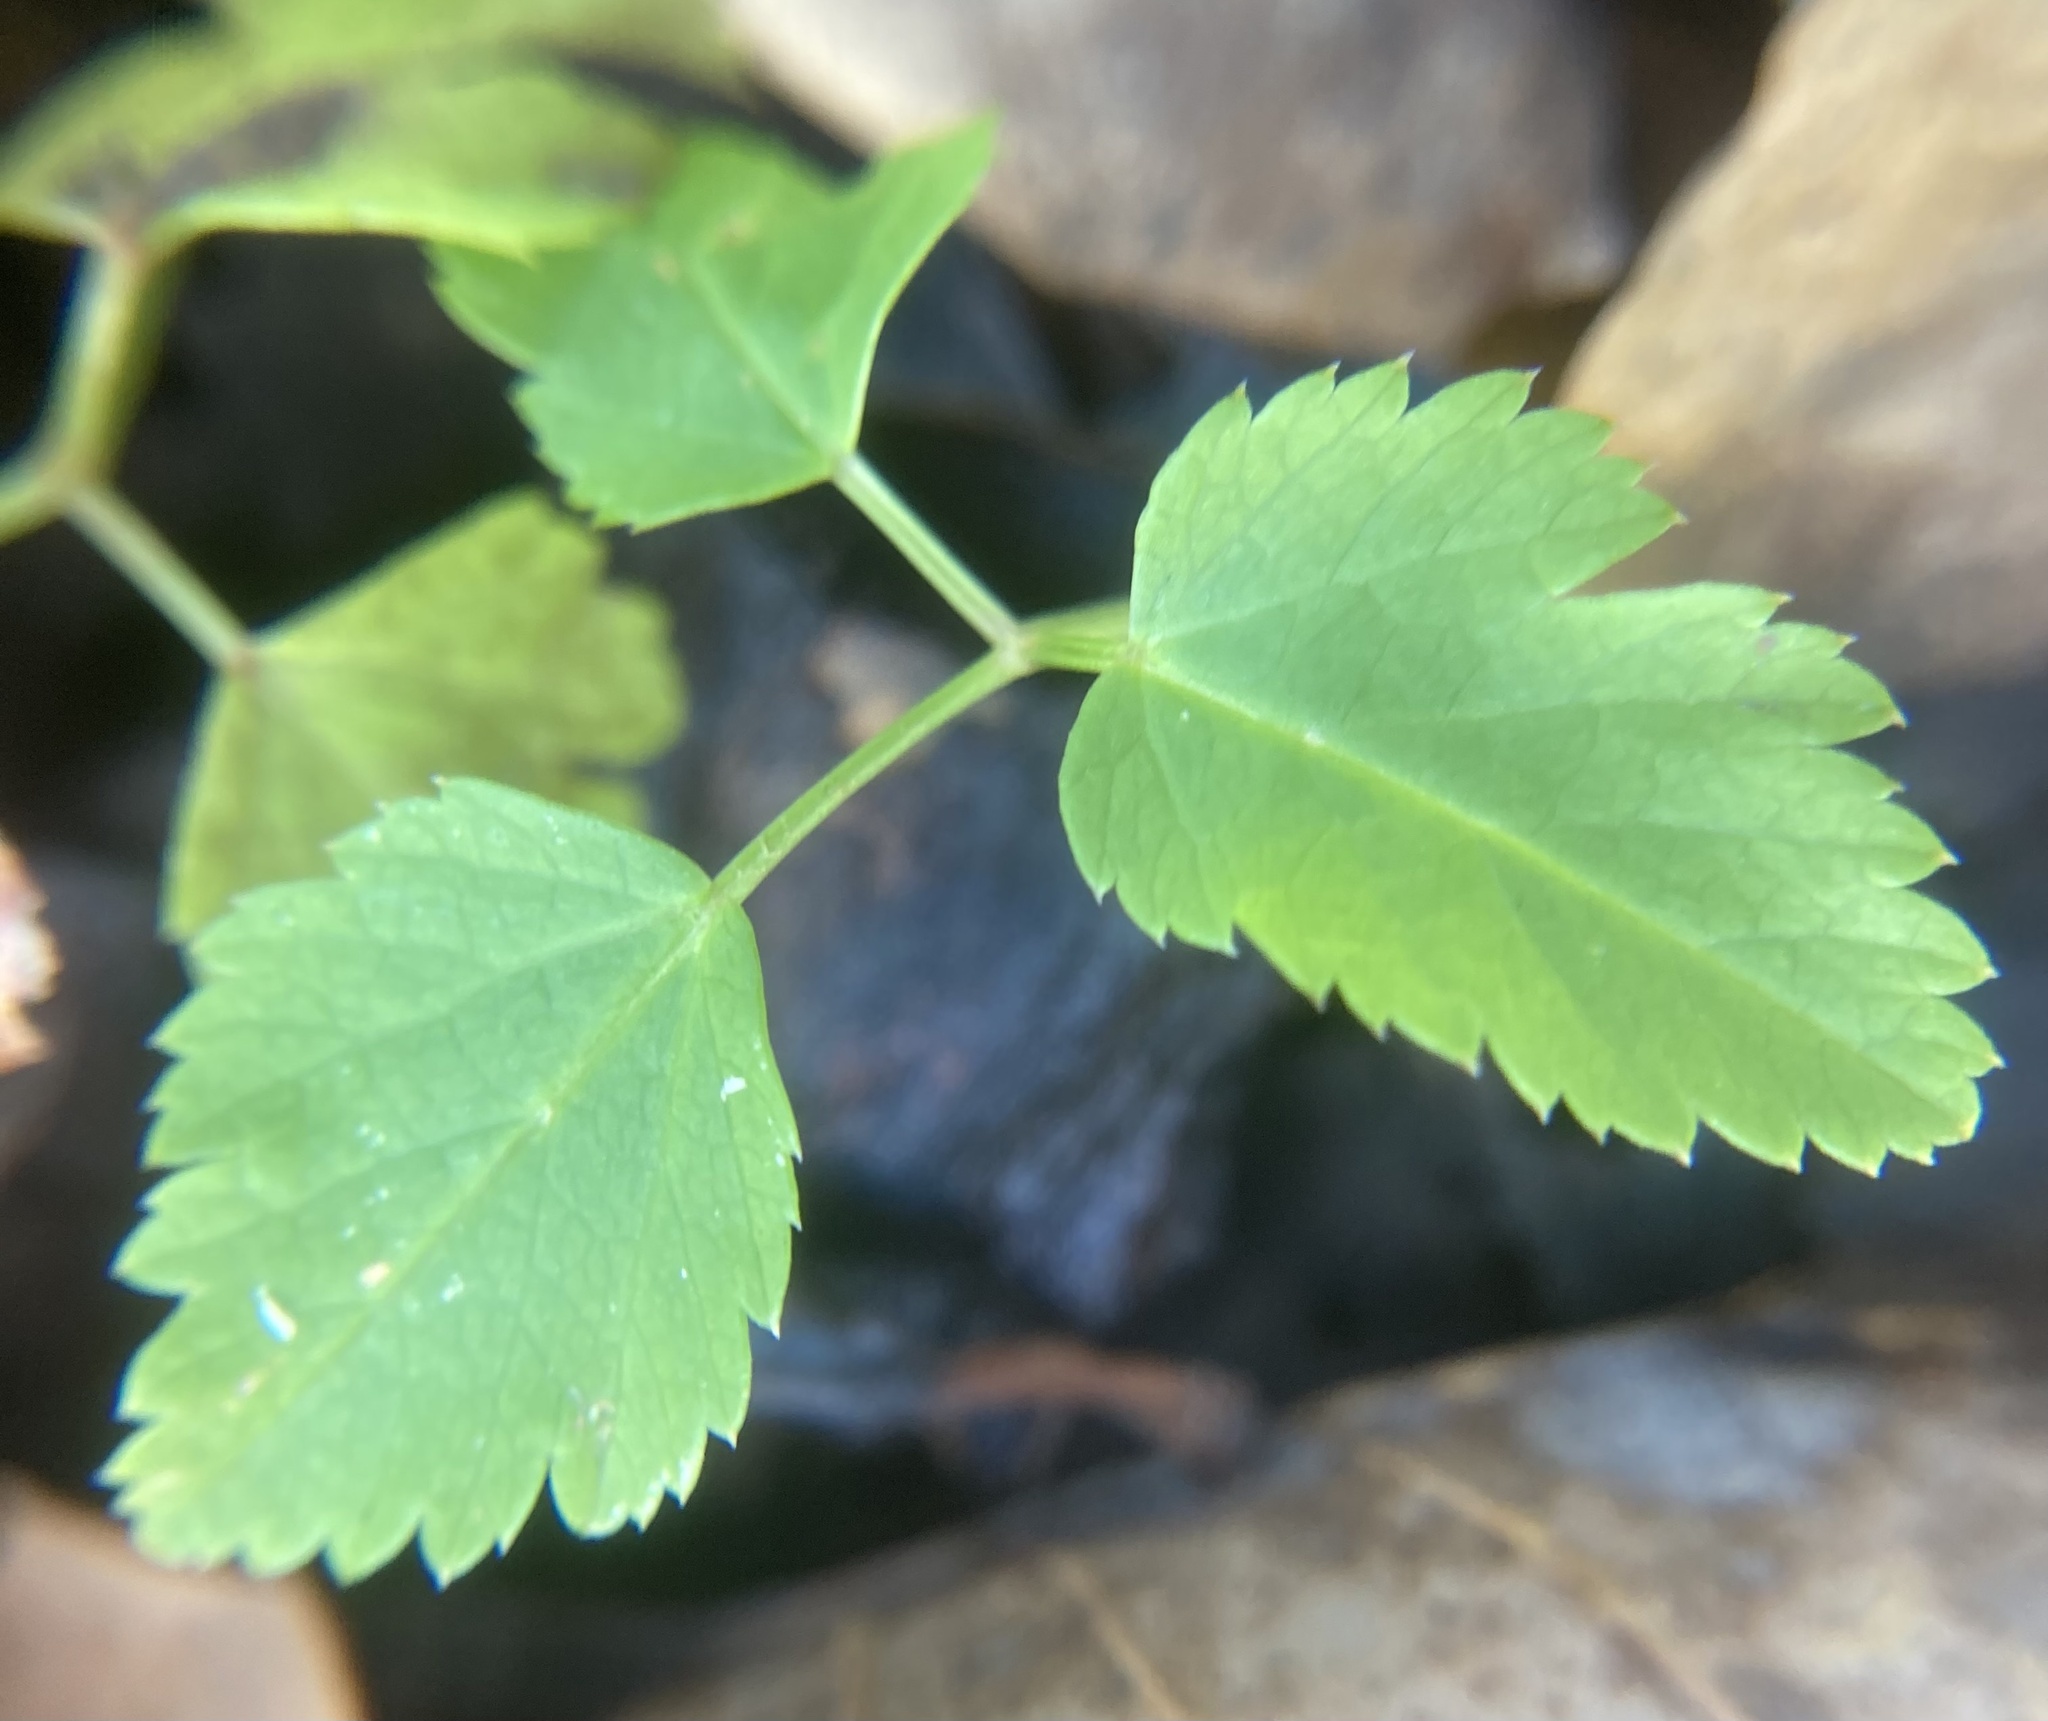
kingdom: Plantae
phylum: Tracheophyta
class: Magnoliopsida
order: Apiales
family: Apiaceae
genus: Aegopodium
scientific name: Aegopodium podagraria
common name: Ground-elder
